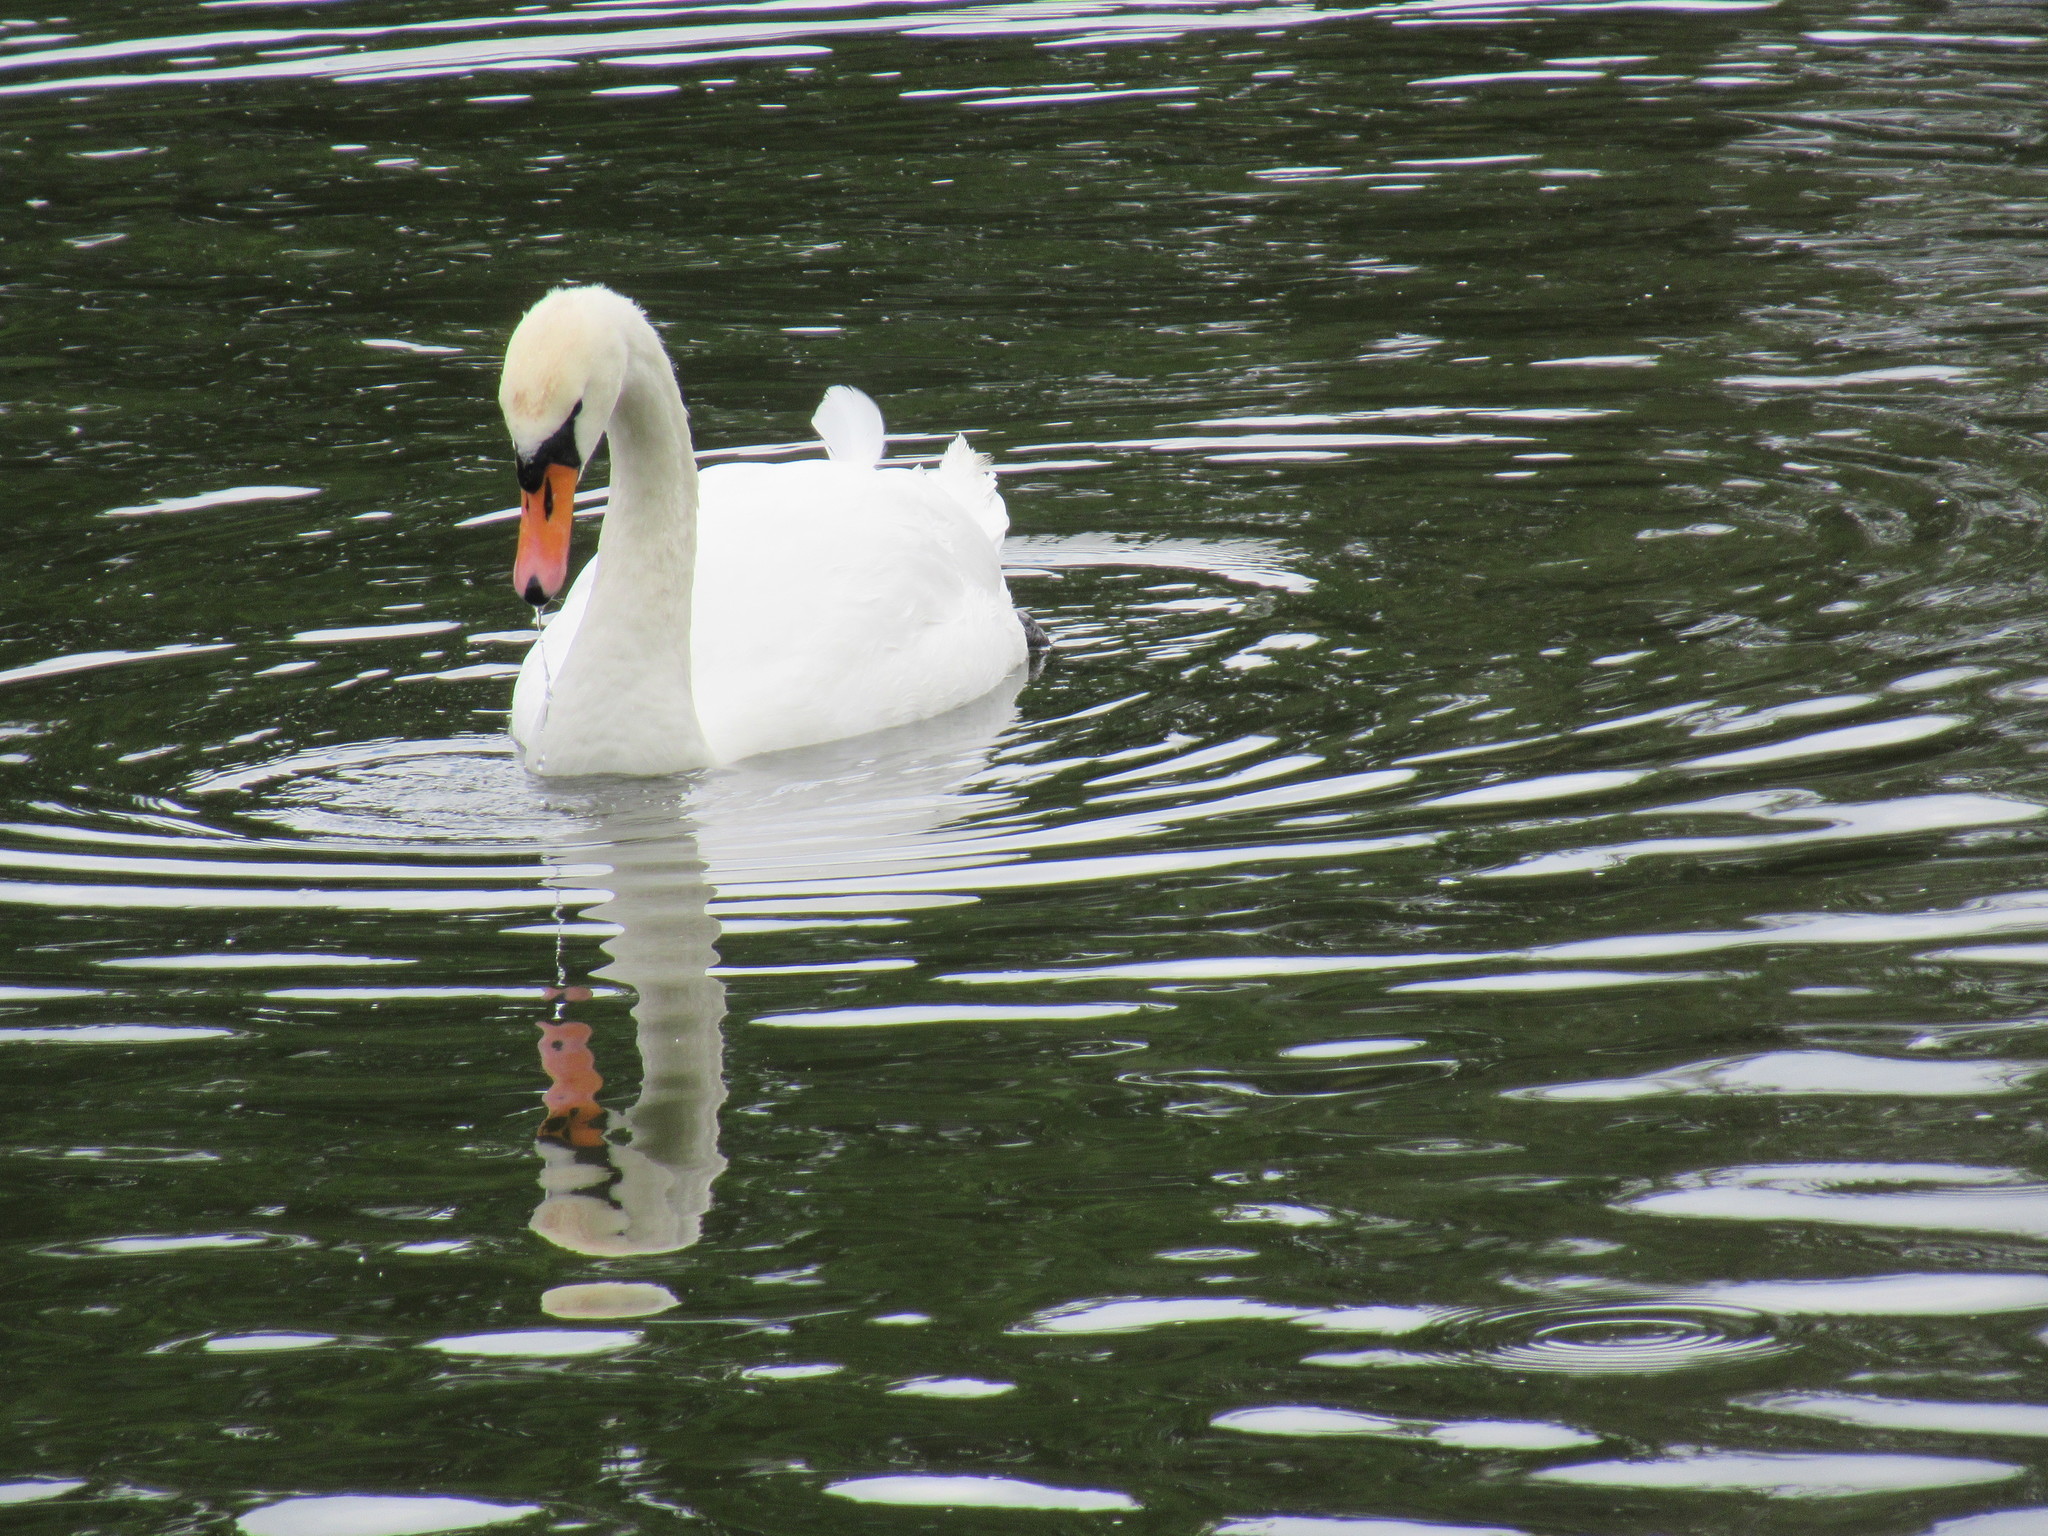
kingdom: Animalia
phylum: Chordata
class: Aves
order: Anseriformes
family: Anatidae
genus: Cygnus
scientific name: Cygnus olor
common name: Mute swan
